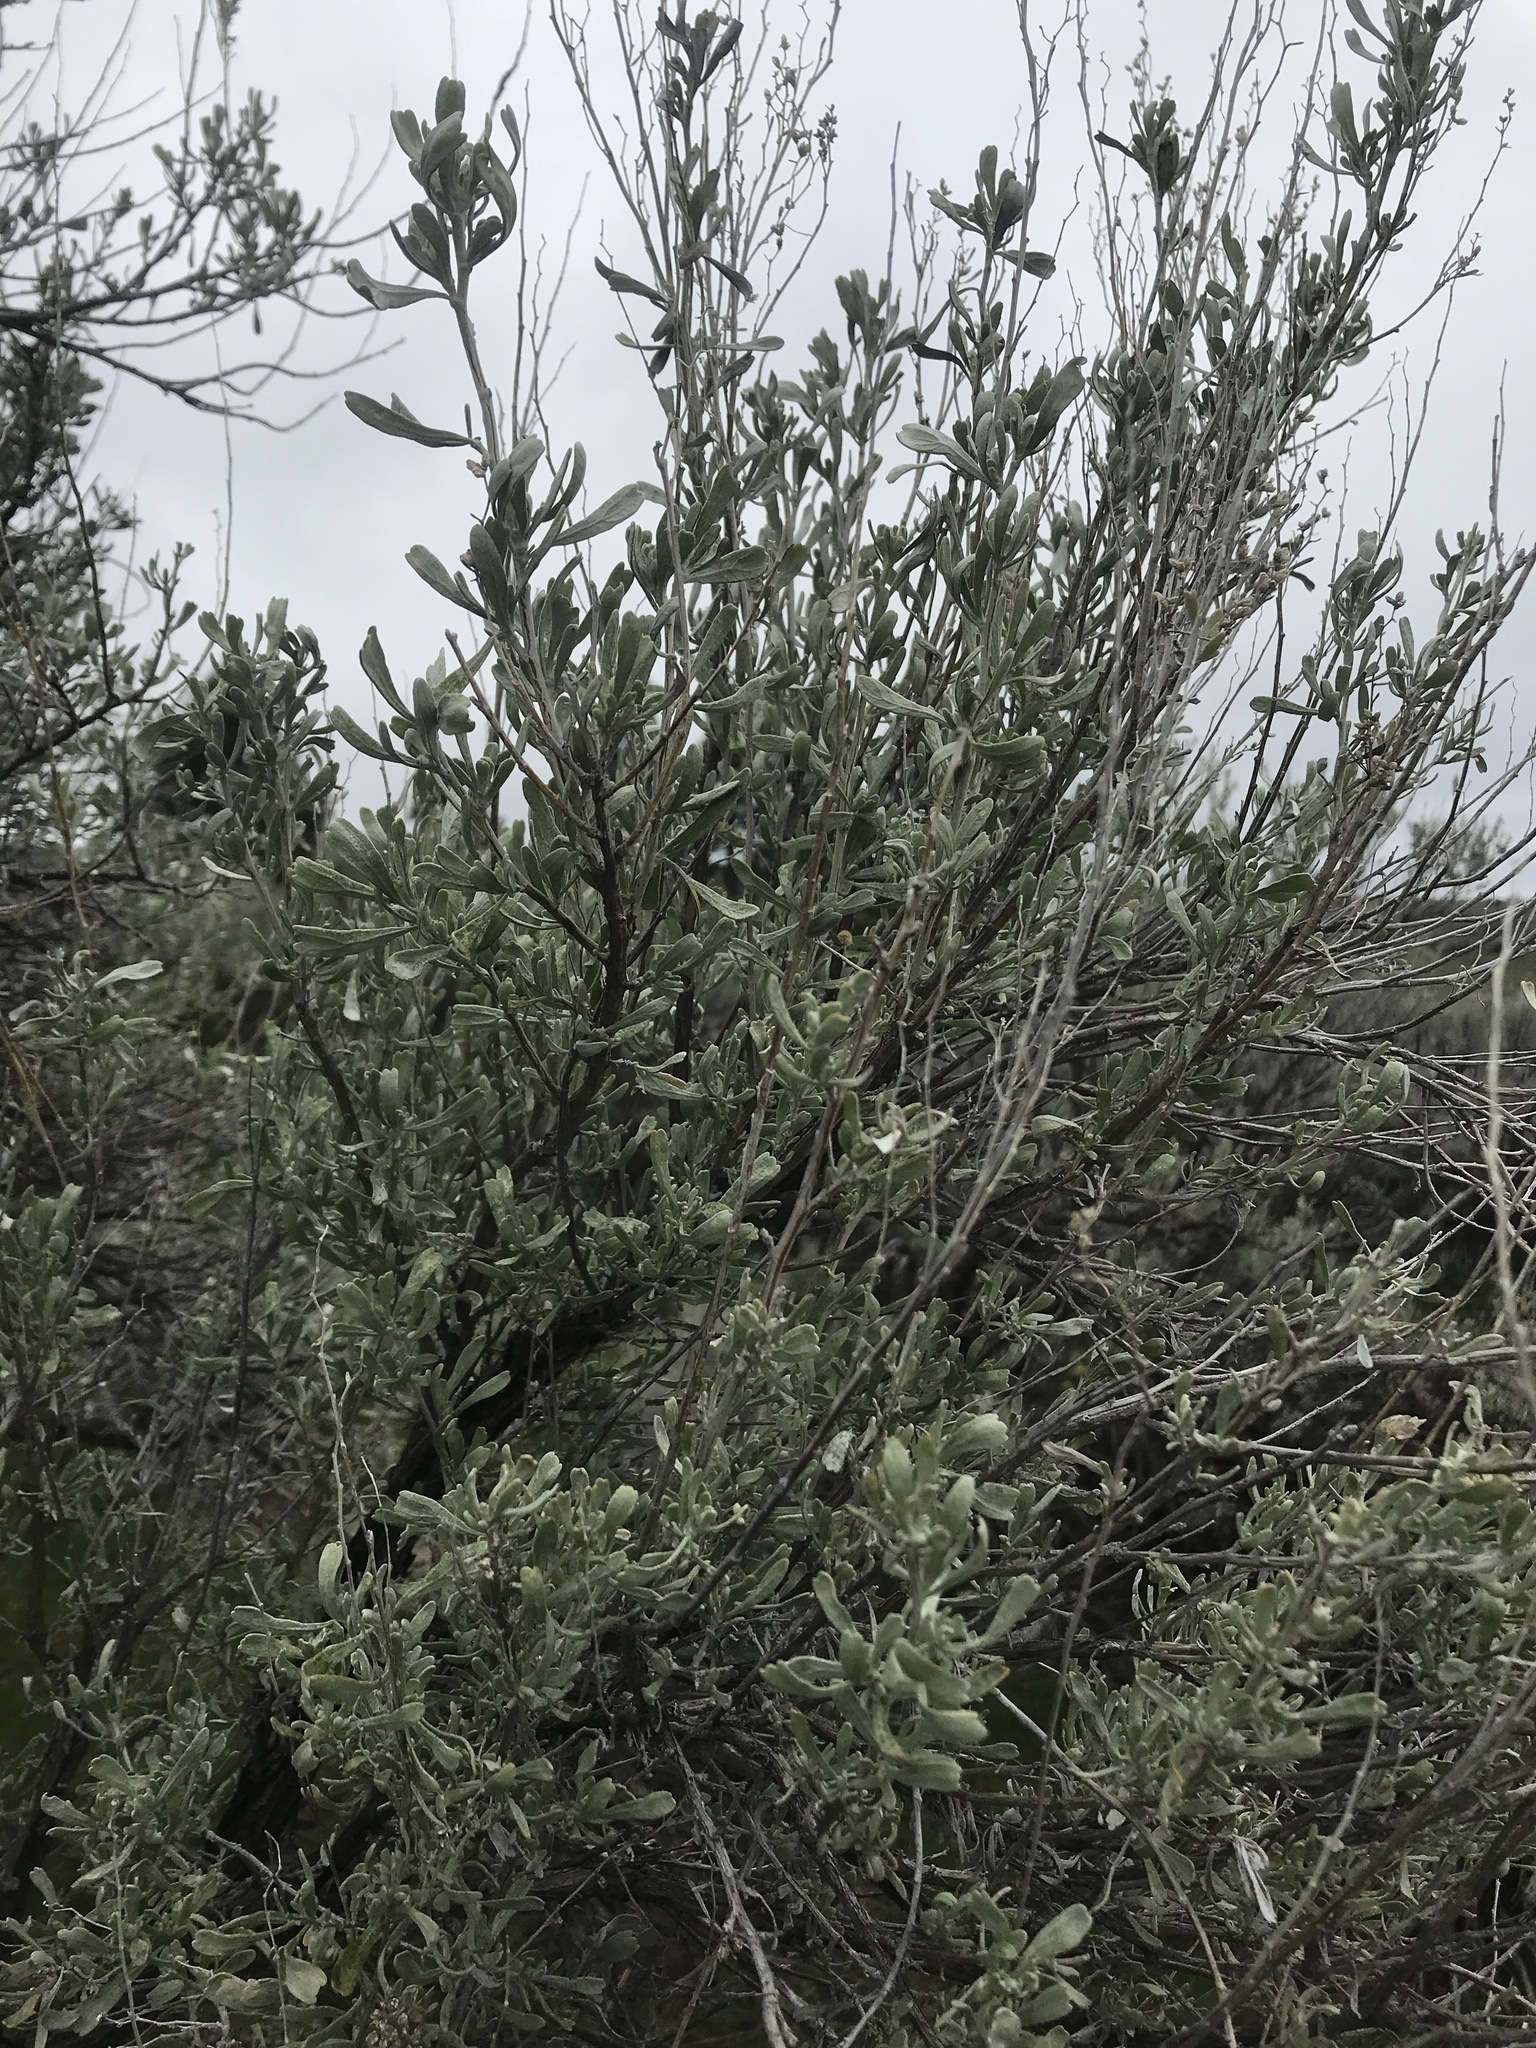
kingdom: Plantae
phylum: Tracheophyta
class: Magnoliopsida
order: Asterales
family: Asteraceae
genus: Artemisia
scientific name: Artemisia tridentata
